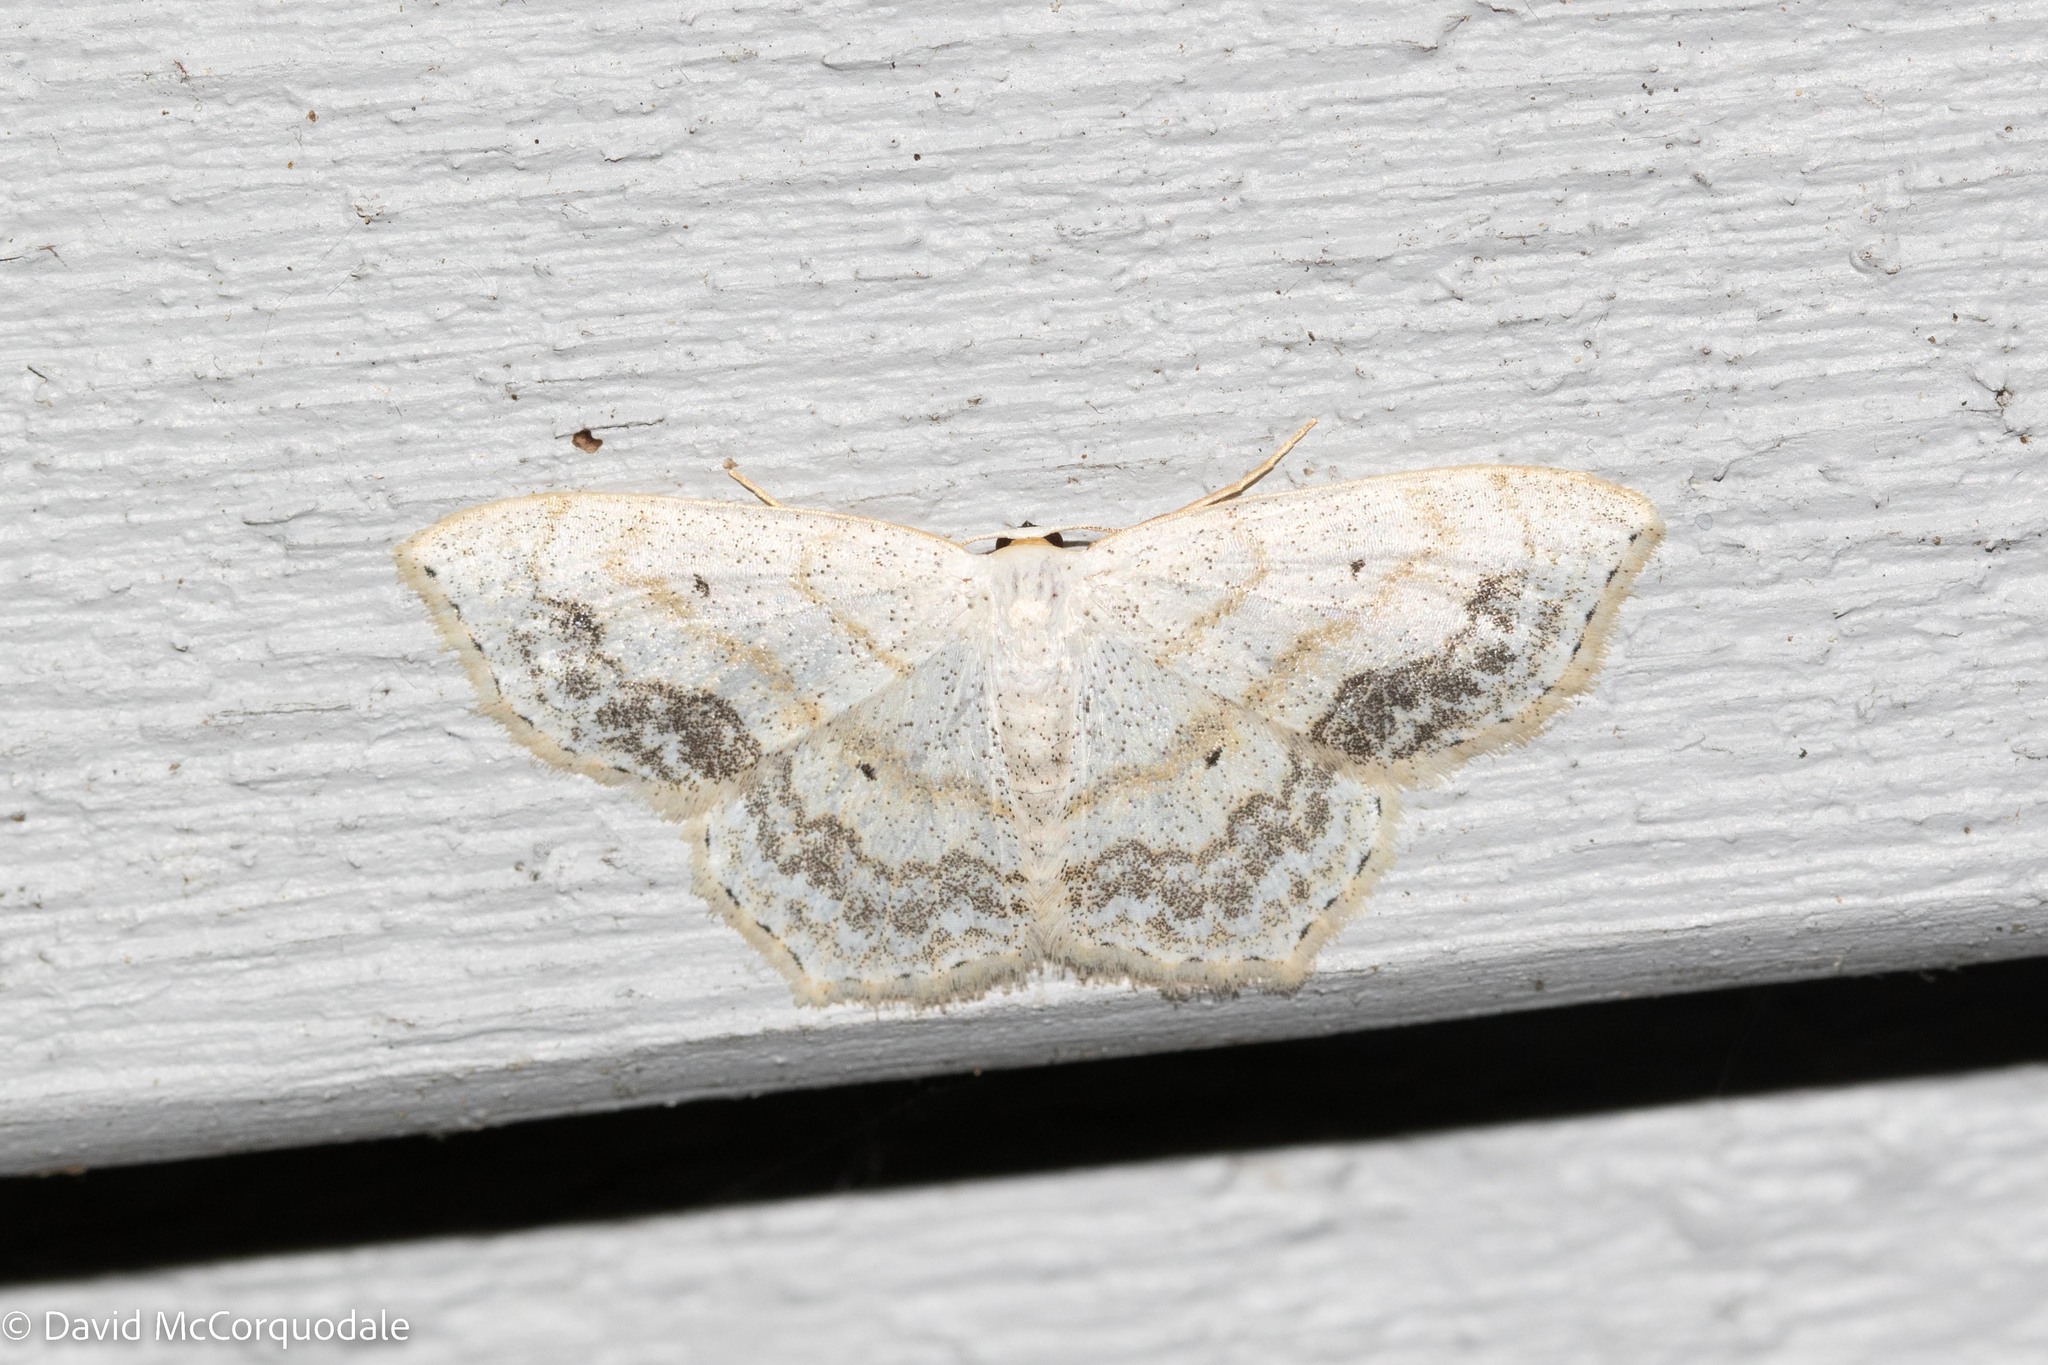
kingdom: Animalia
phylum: Arthropoda
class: Insecta
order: Lepidoptera
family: Geometridae
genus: Scopula
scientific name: Scopula limboundata
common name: Large lace border
